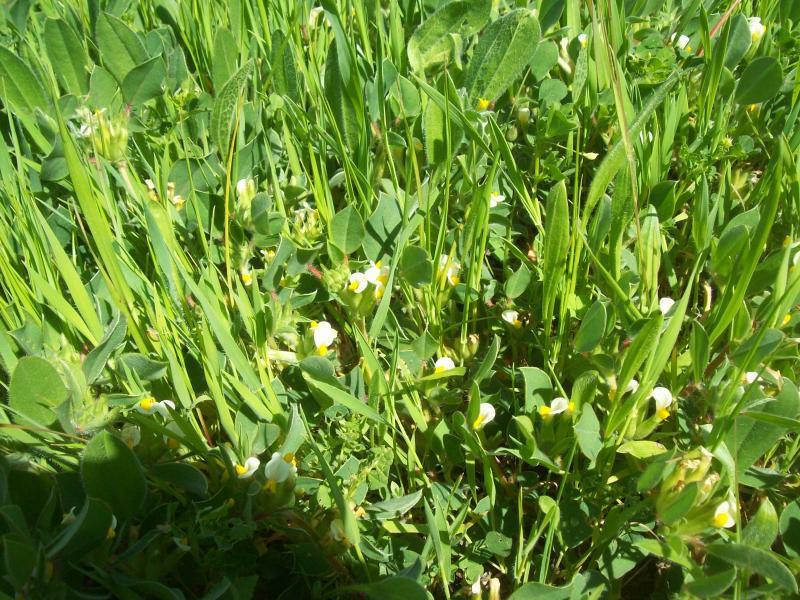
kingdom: Plantae
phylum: Tracheophyta
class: Magnoliopsida
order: Fabales
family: Fabaceae
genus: Tripodion
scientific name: Tripodion tetraphyllum
